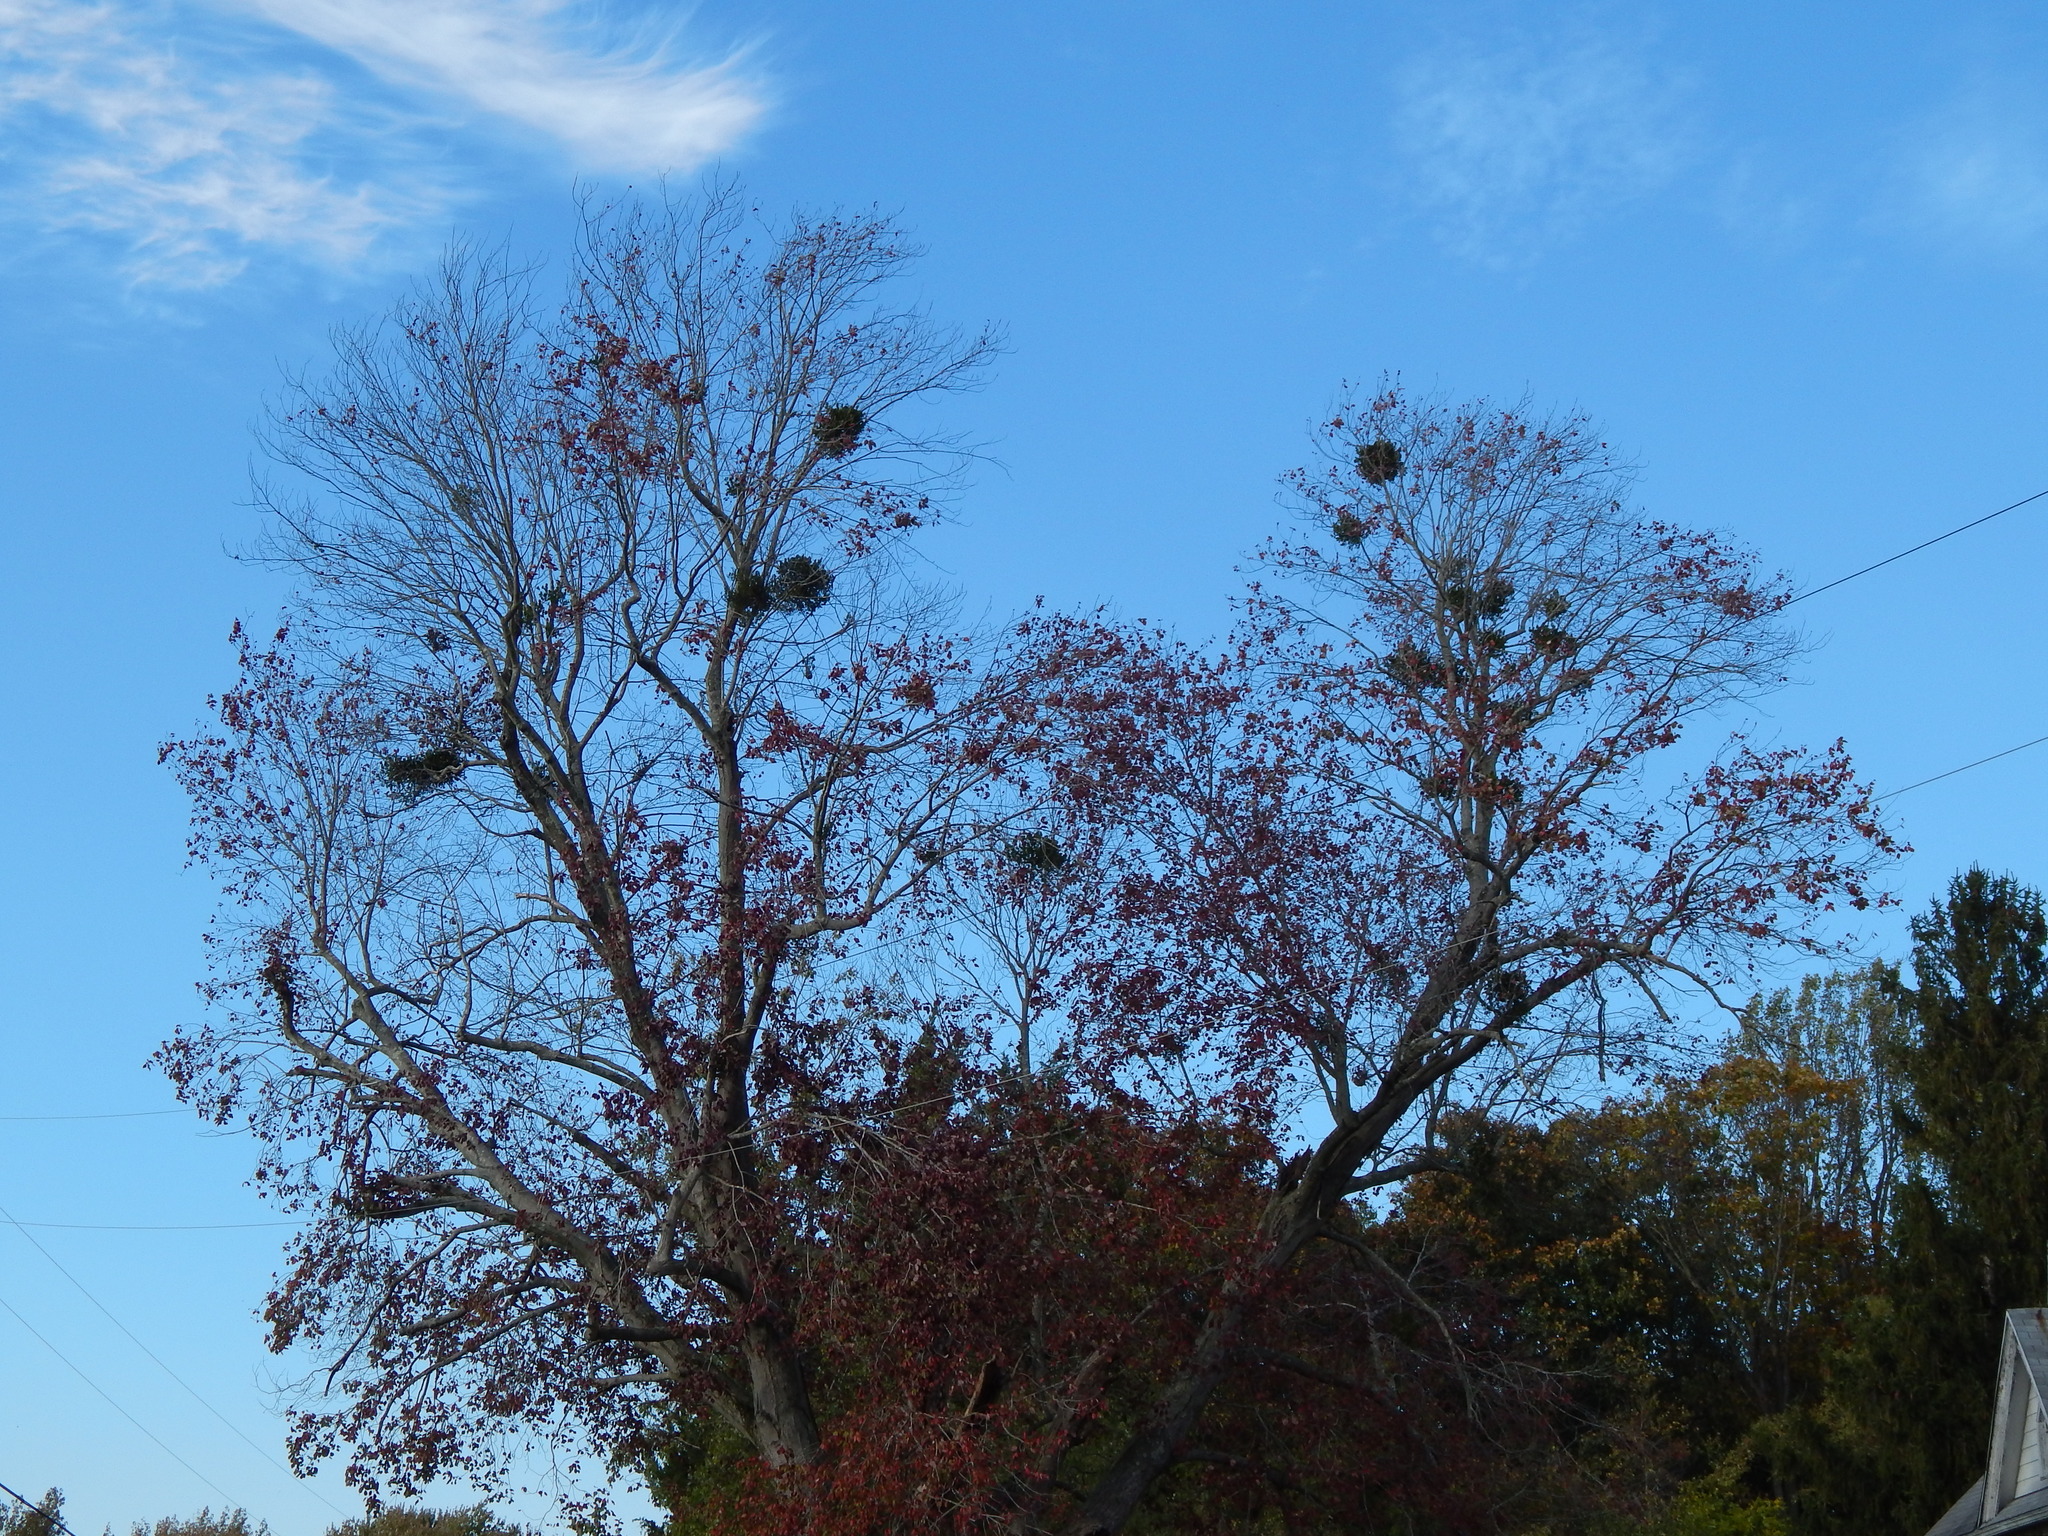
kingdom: Plantae
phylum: Tracheophyta
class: Magnoliopsida
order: Santalales
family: Viscaceae
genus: Phoradendron
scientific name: Phoradendron leucarpum
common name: Pacific mistletoe
